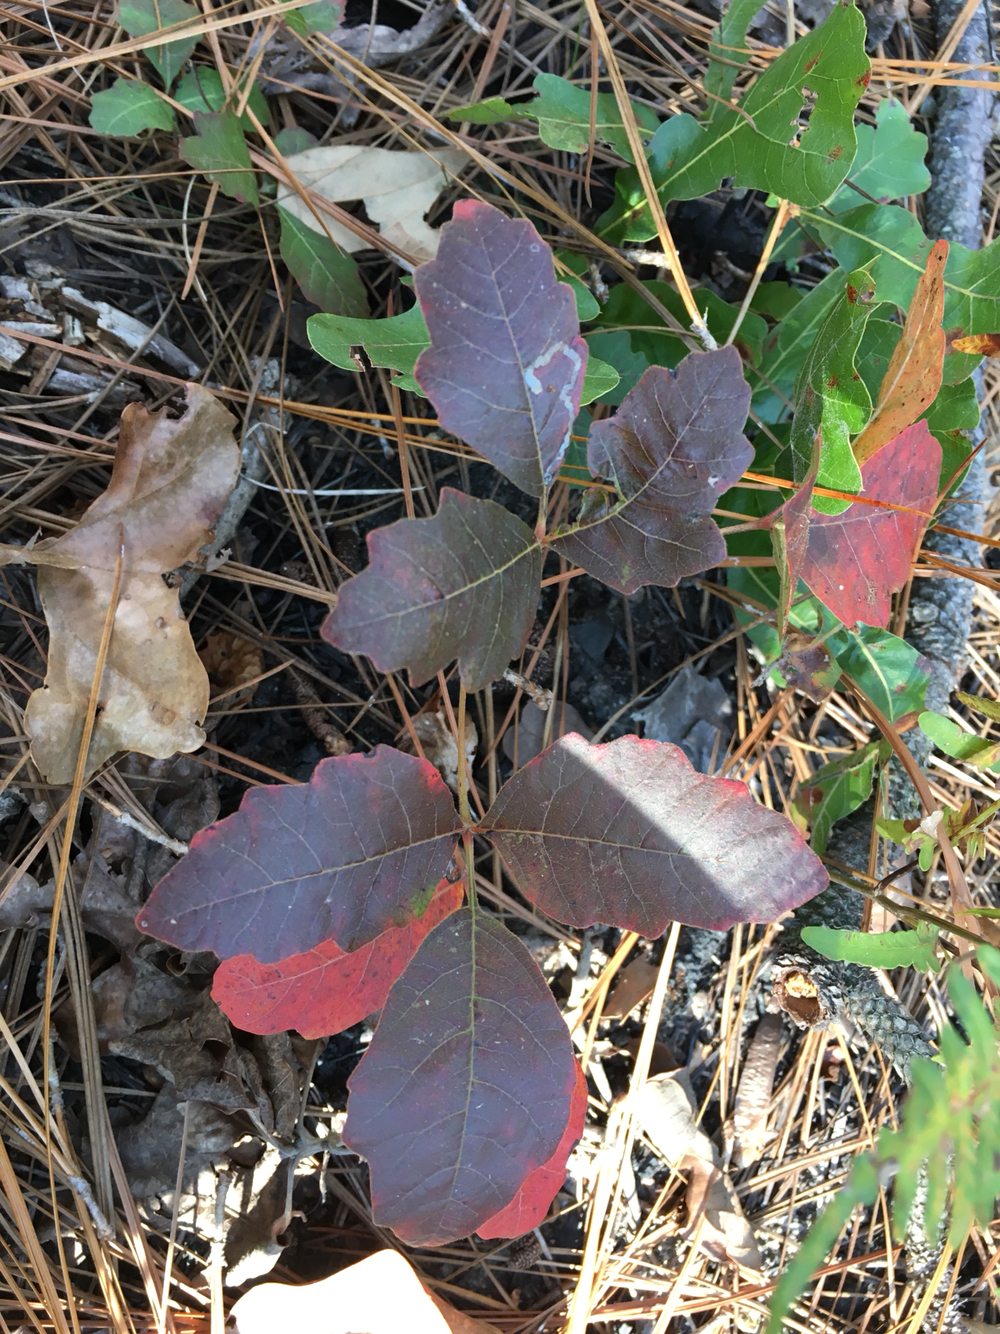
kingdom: Plantae
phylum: Tracheophyta
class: Magnoliopsida
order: Sapindales
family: Anacardiaceae
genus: Toxicodendron
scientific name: Toxicodendron pubescens
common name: Eastern poison-oak
